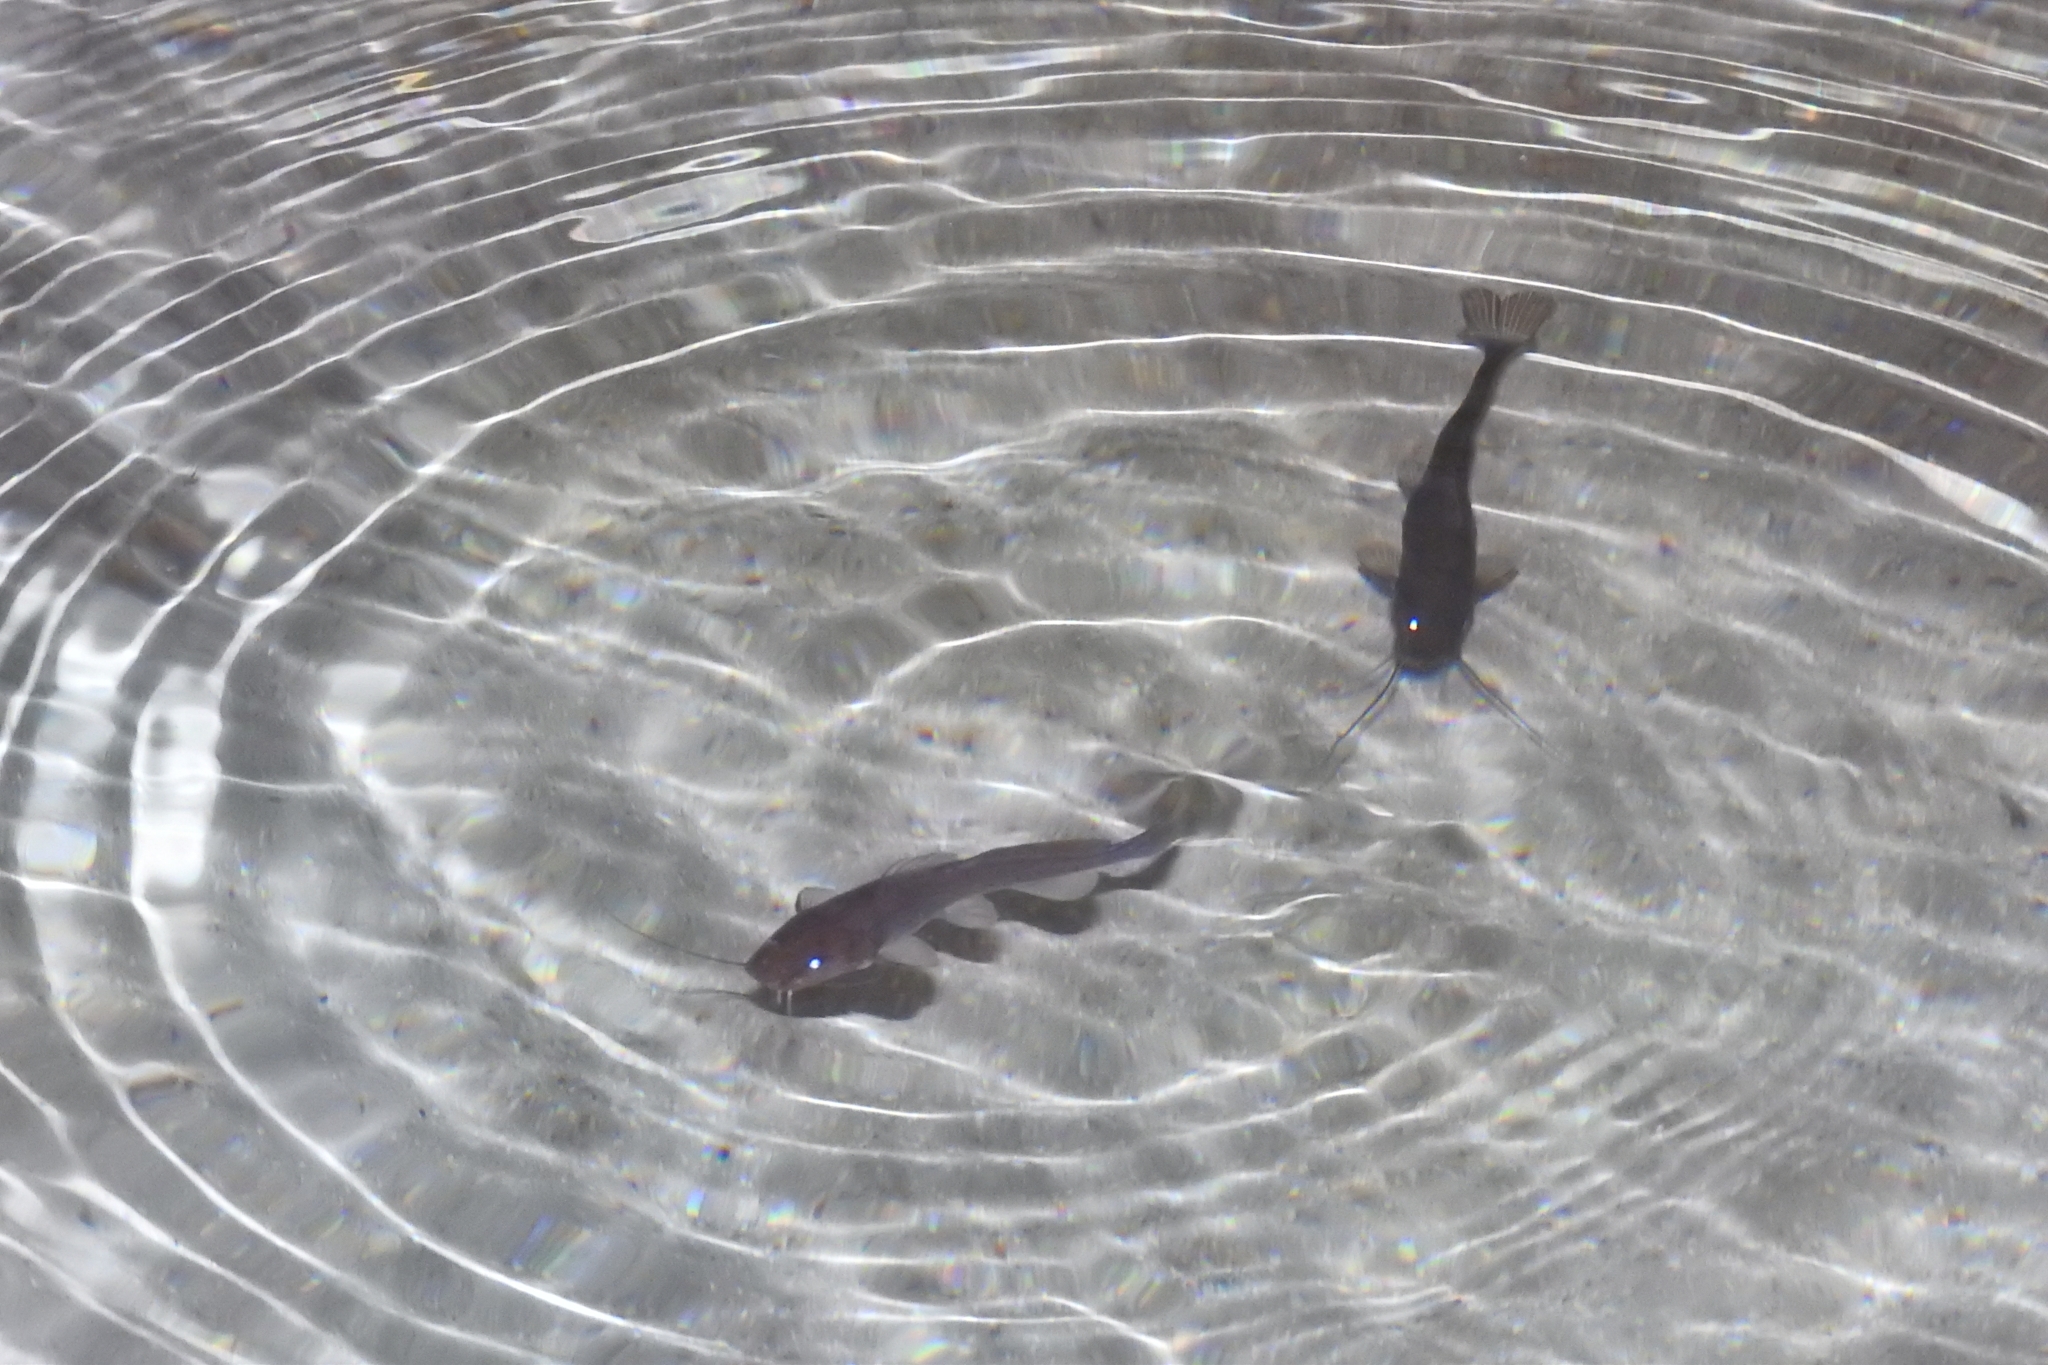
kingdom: Animalia
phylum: Chordata
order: Siluriformes
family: Heptapteridae
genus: Rhamdia
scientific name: Rhamdia guatemalensis
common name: Pale catfish
